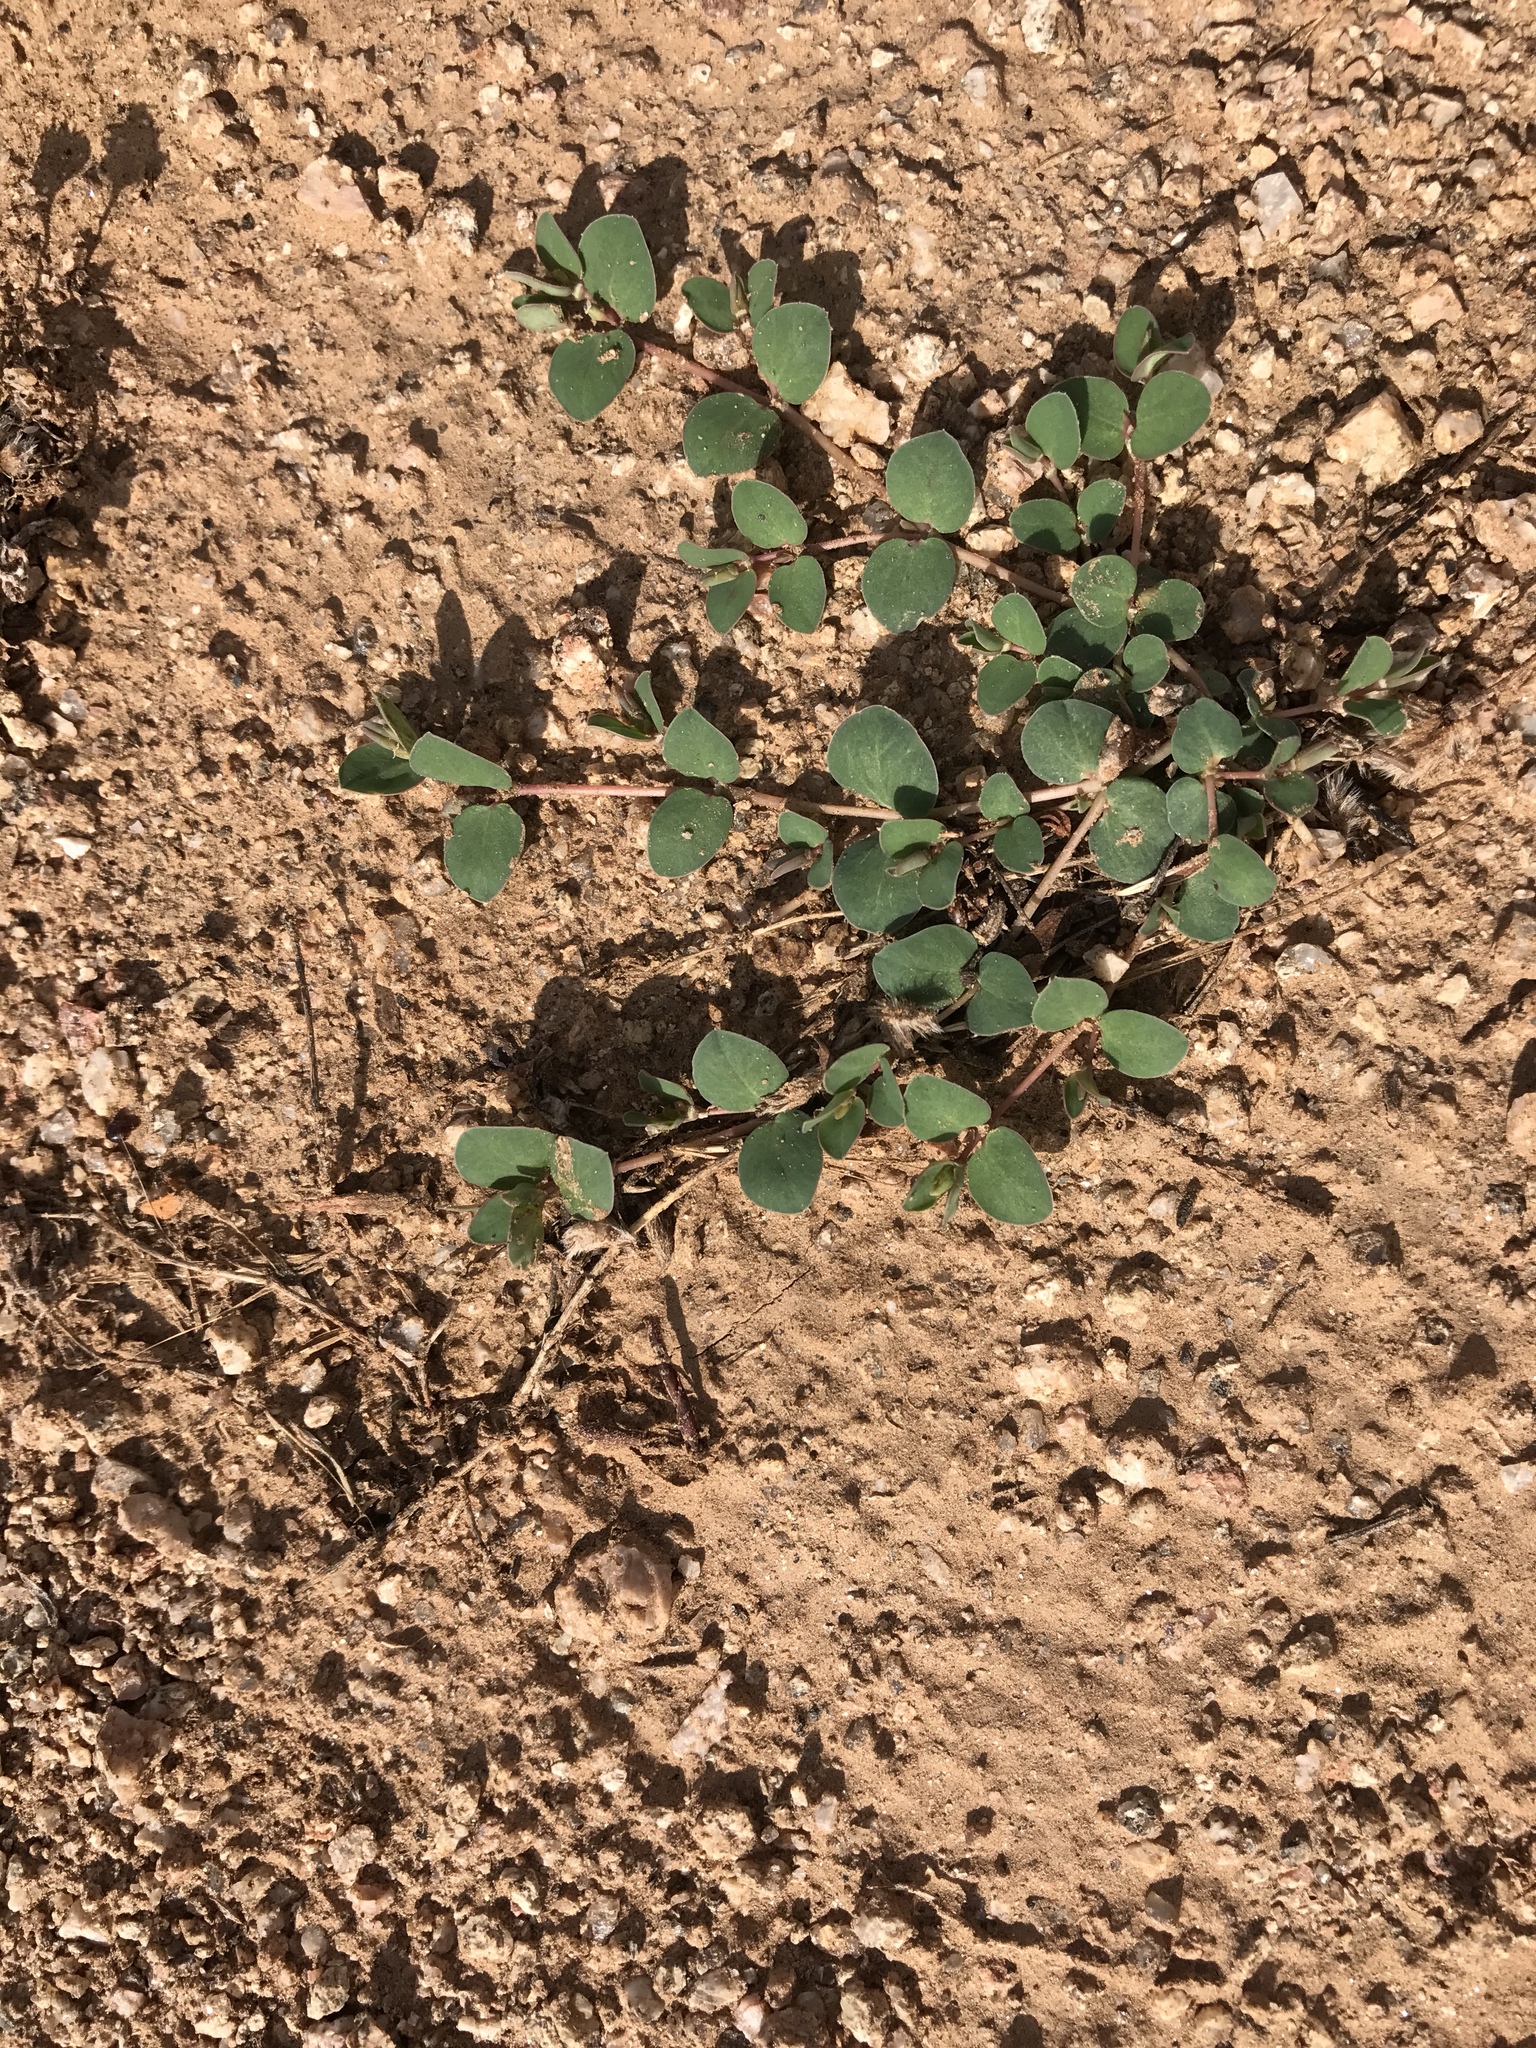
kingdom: Plantae
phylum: Tracheophyta
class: Magnoliopsida
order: Malpighiales
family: Euphorbiaceae
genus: Euphorbia
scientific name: Euphorbia albomarginata
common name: Whitemargin sandmat
